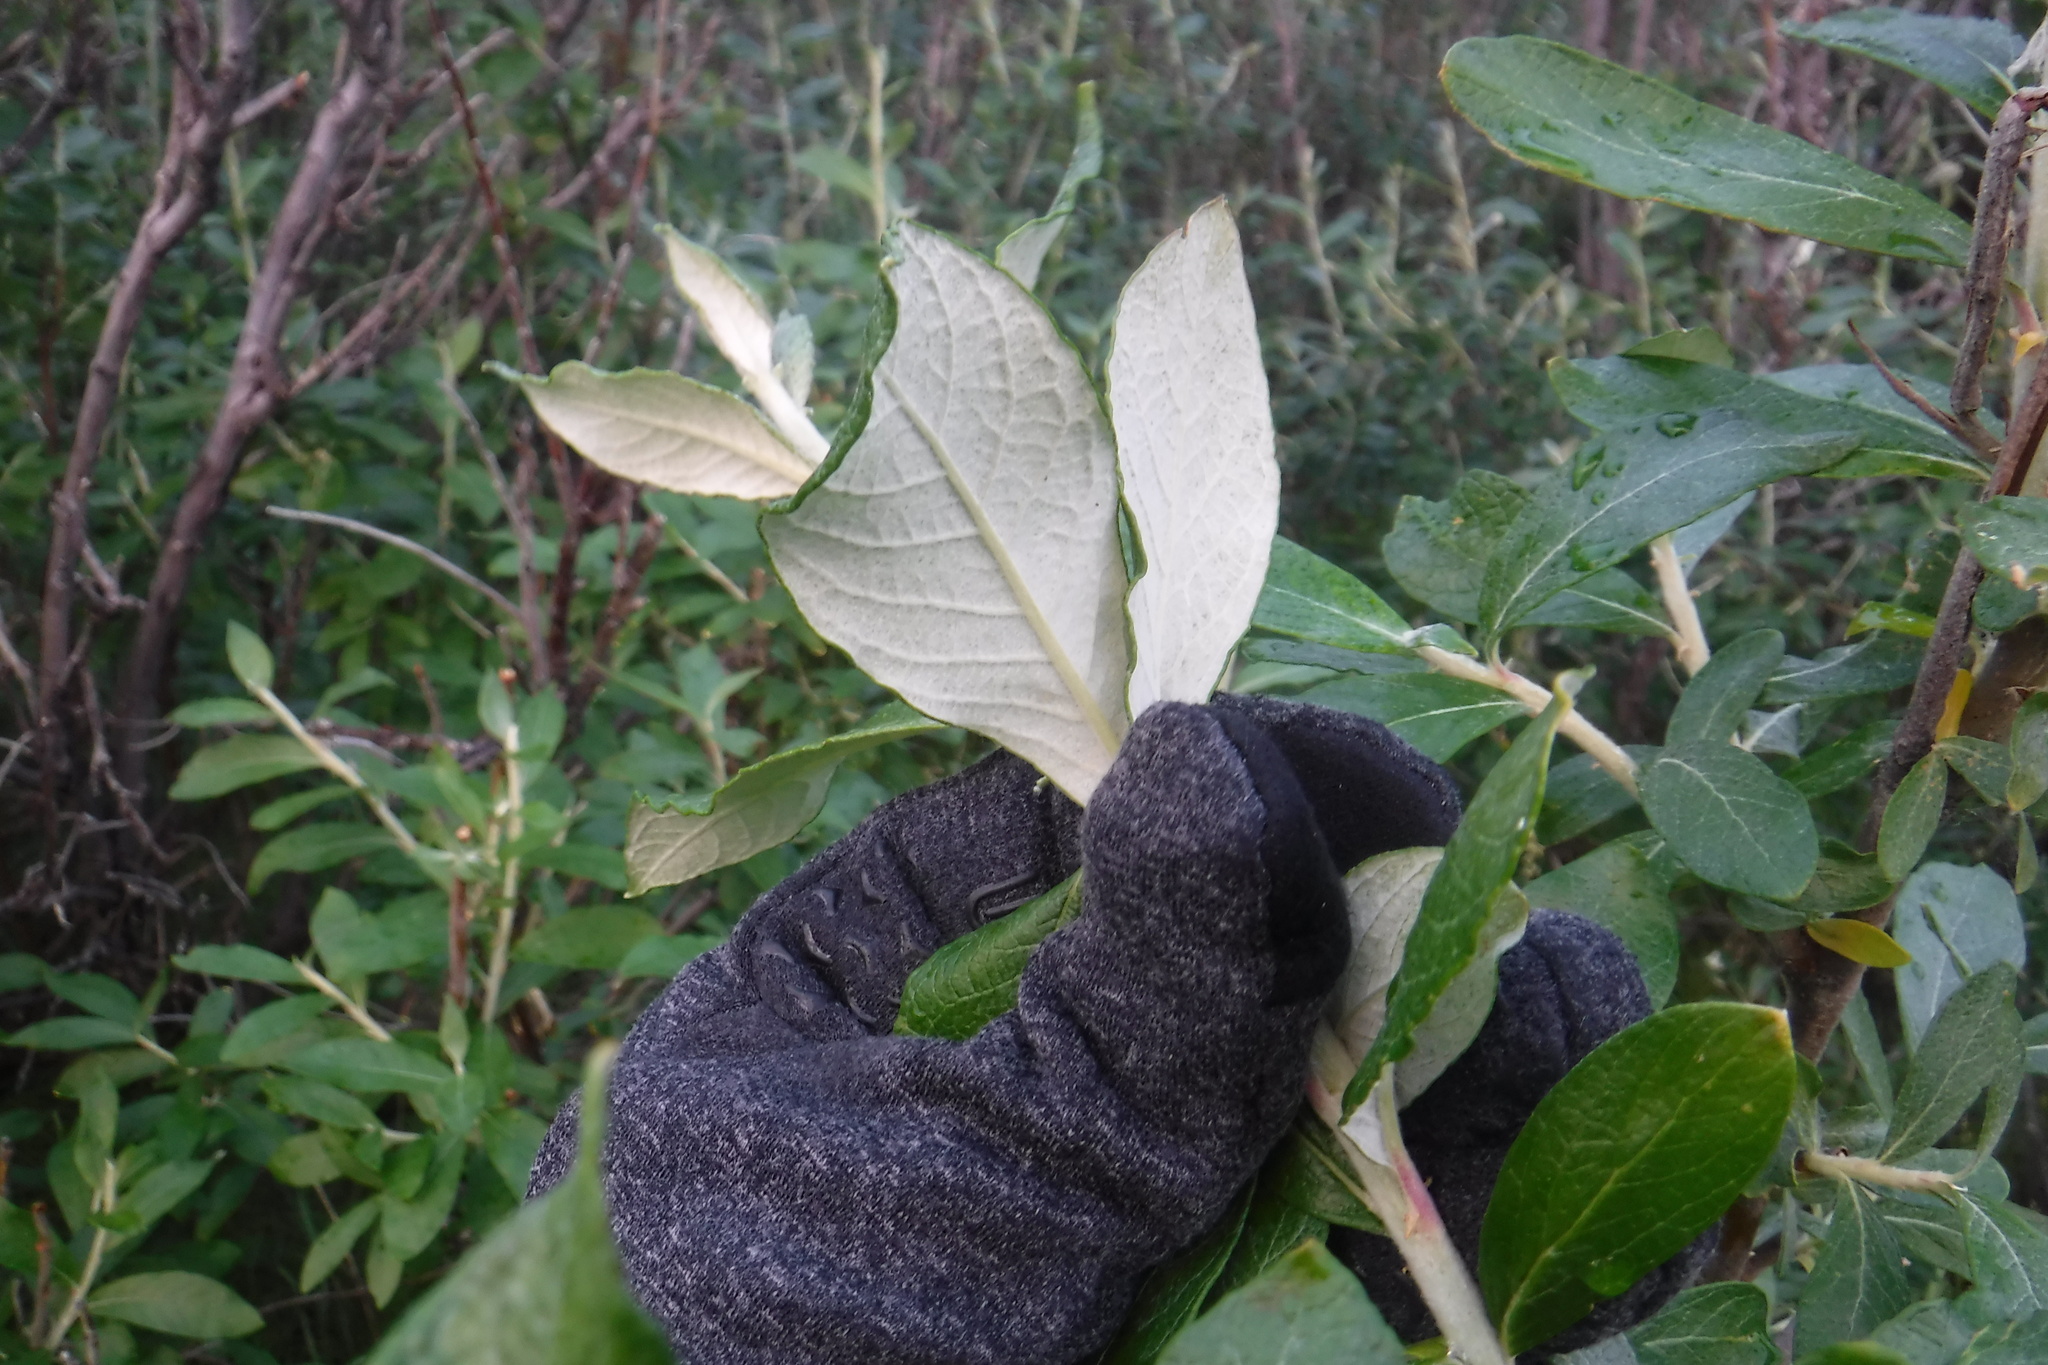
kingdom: Plantae
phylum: Tracheophyta
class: Magnoliopsida
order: Malpighiales
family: Salicaceae
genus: Salix
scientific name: Salix alaxensis
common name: Feltleaf willow
